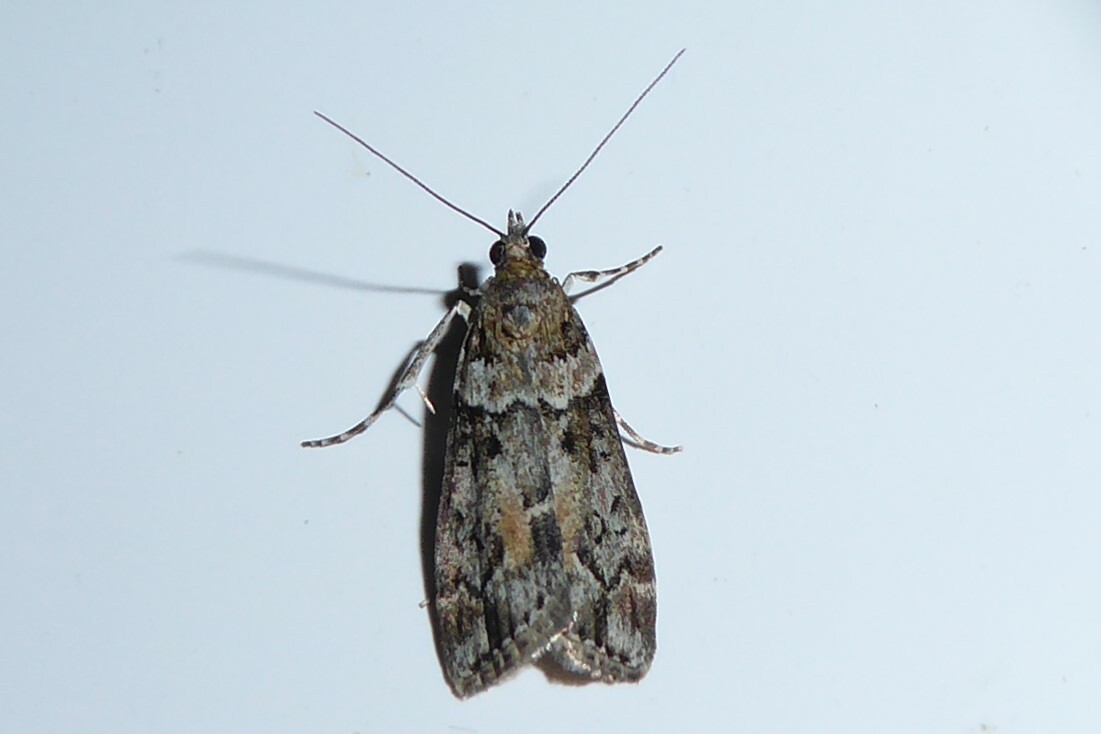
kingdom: Animalia
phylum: Arthropoda
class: Insecta
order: Lepidoptera
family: Crambidae
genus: Eudonia
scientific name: Eudonia submarginalis
